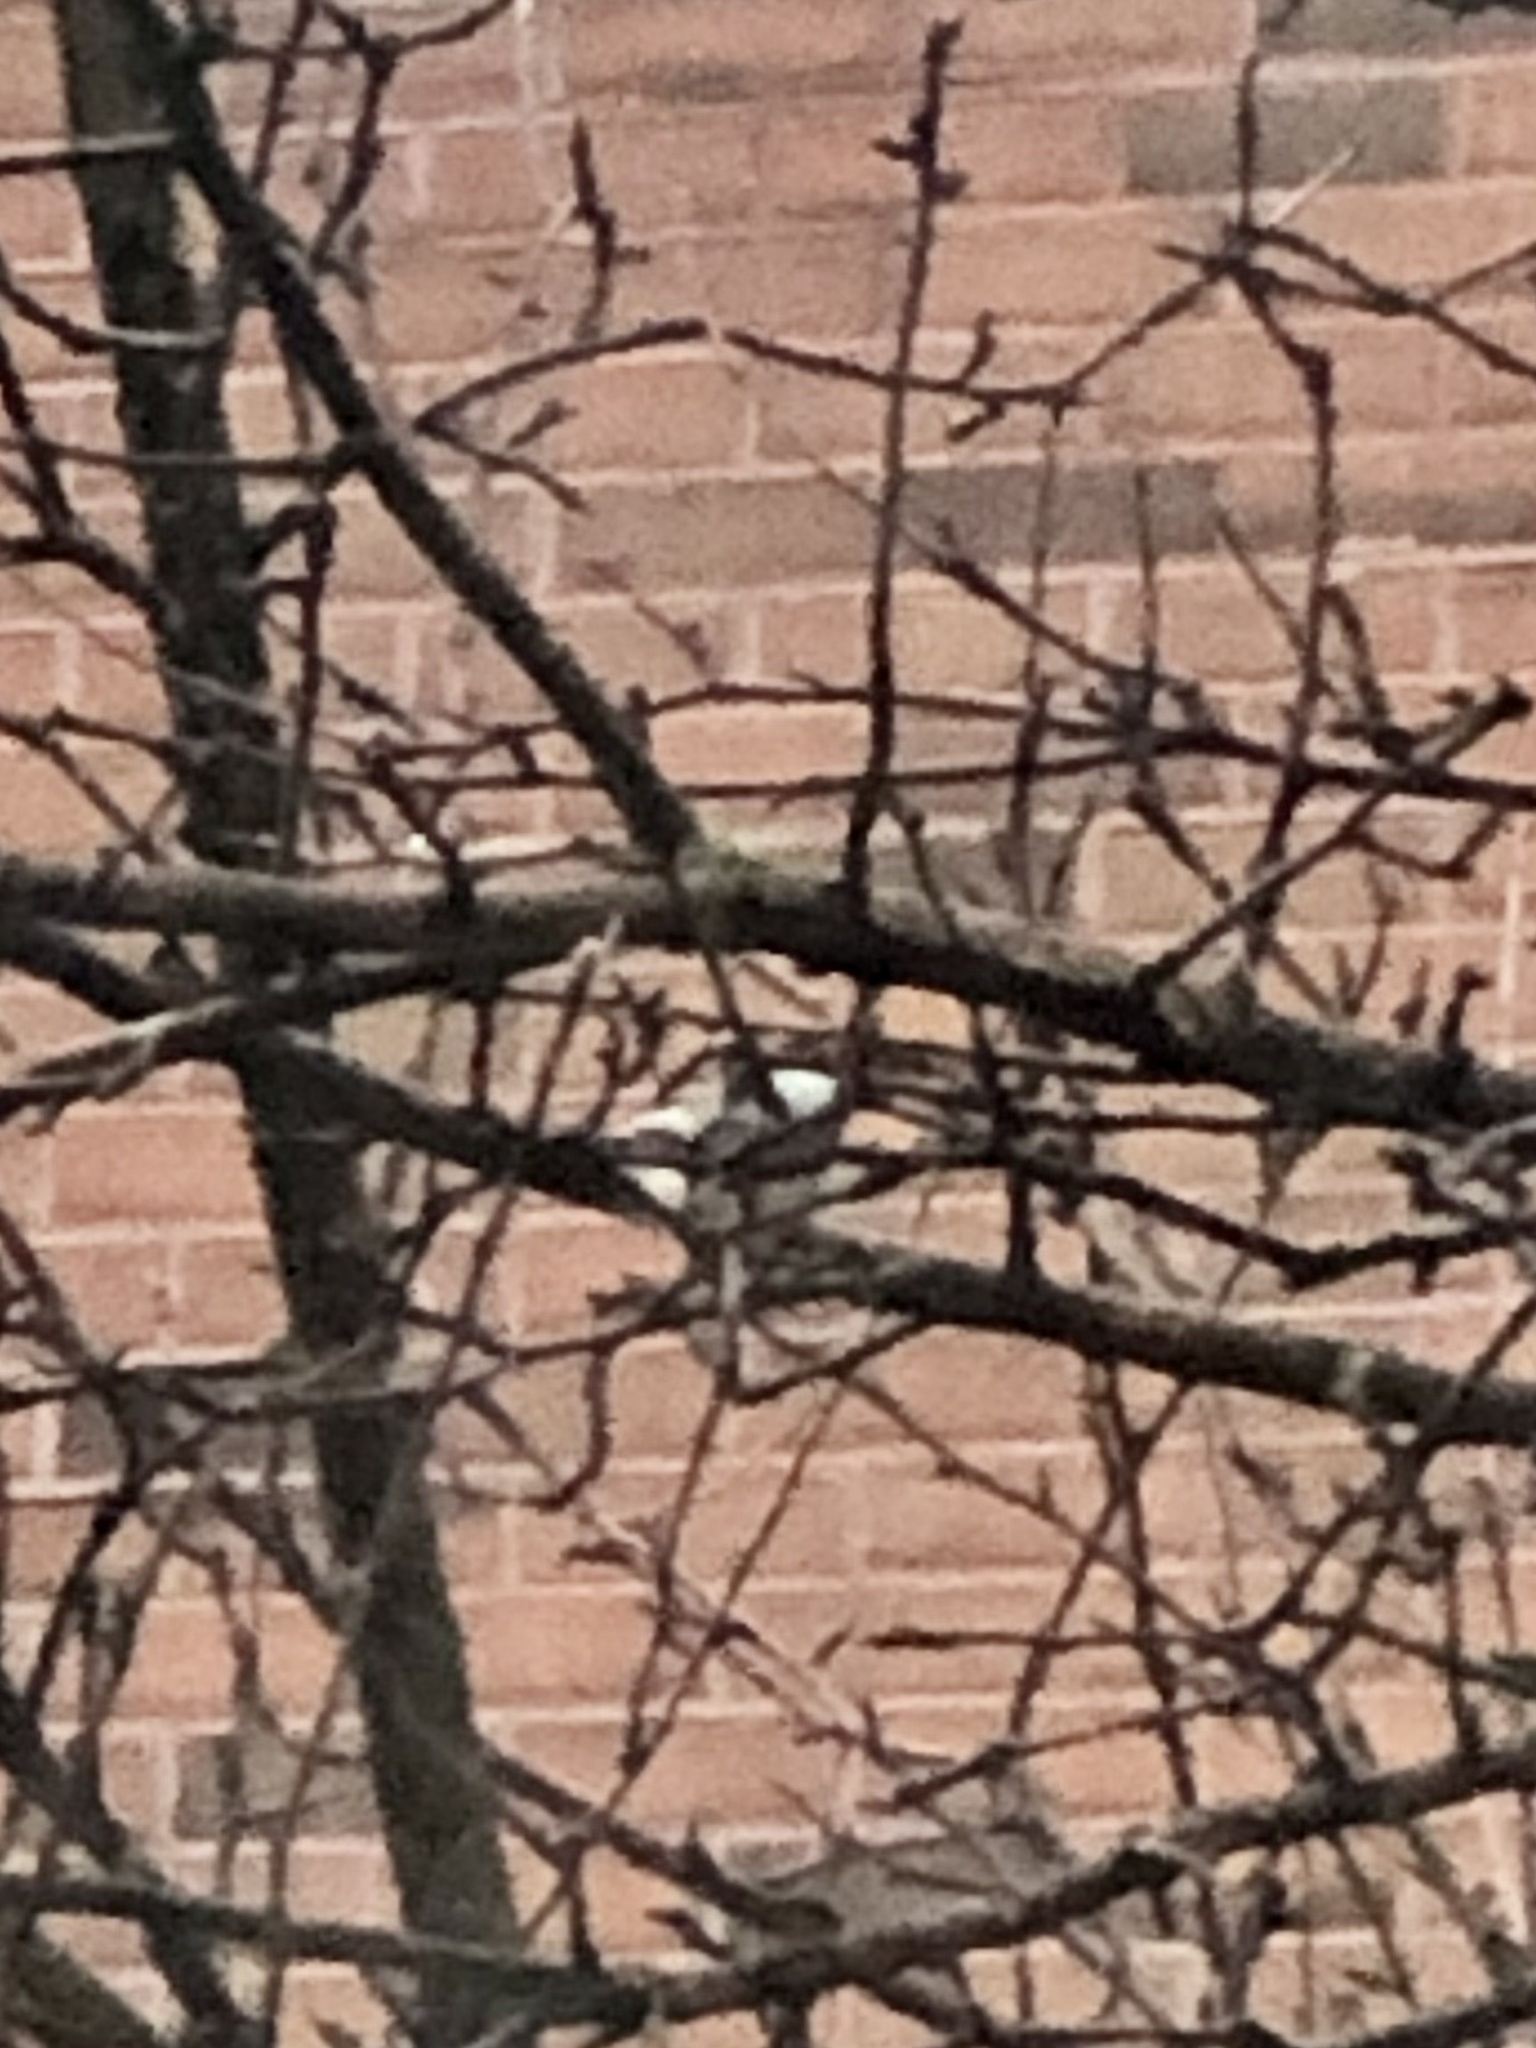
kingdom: Animalia
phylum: Chordata
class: Aves
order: Passeriformes
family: Paridae
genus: Poecile
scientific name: Poecile atricapillus
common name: Black-capped chickadee
